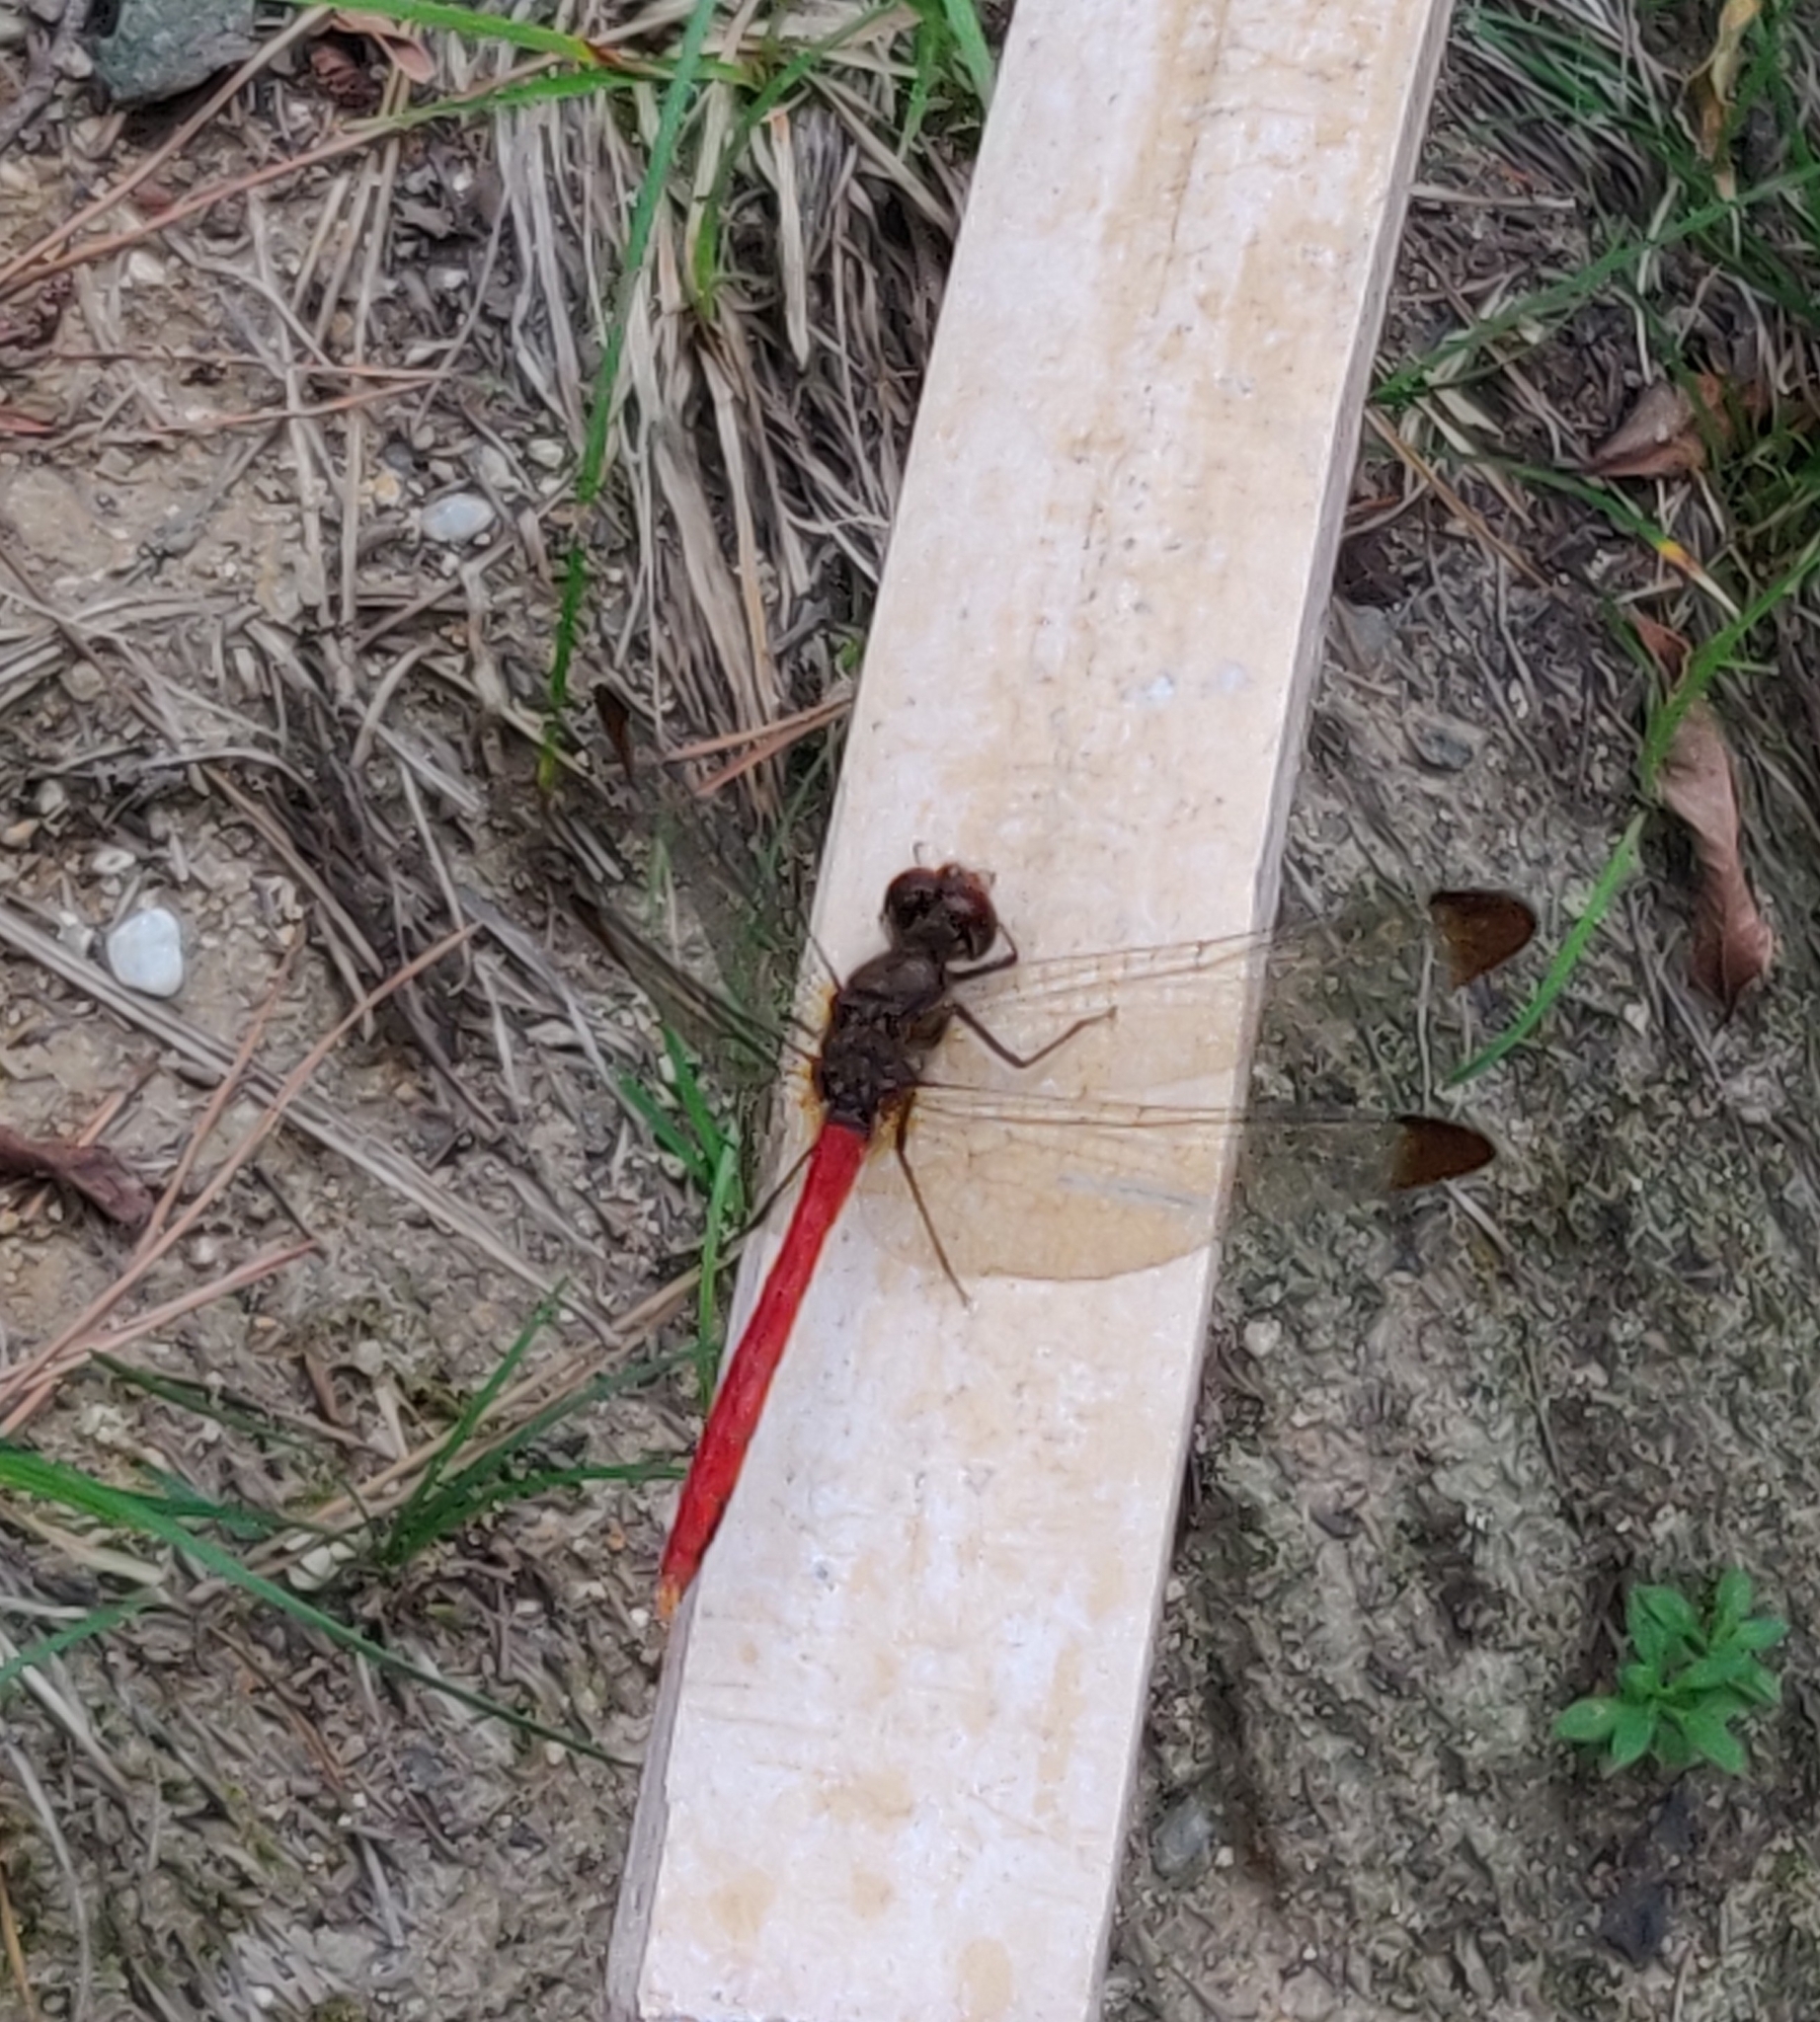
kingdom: Animalia
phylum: Arthropoda
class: Insecta
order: Odonata
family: Libellulidae
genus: Sympetrum
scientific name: Sympetrum risi
